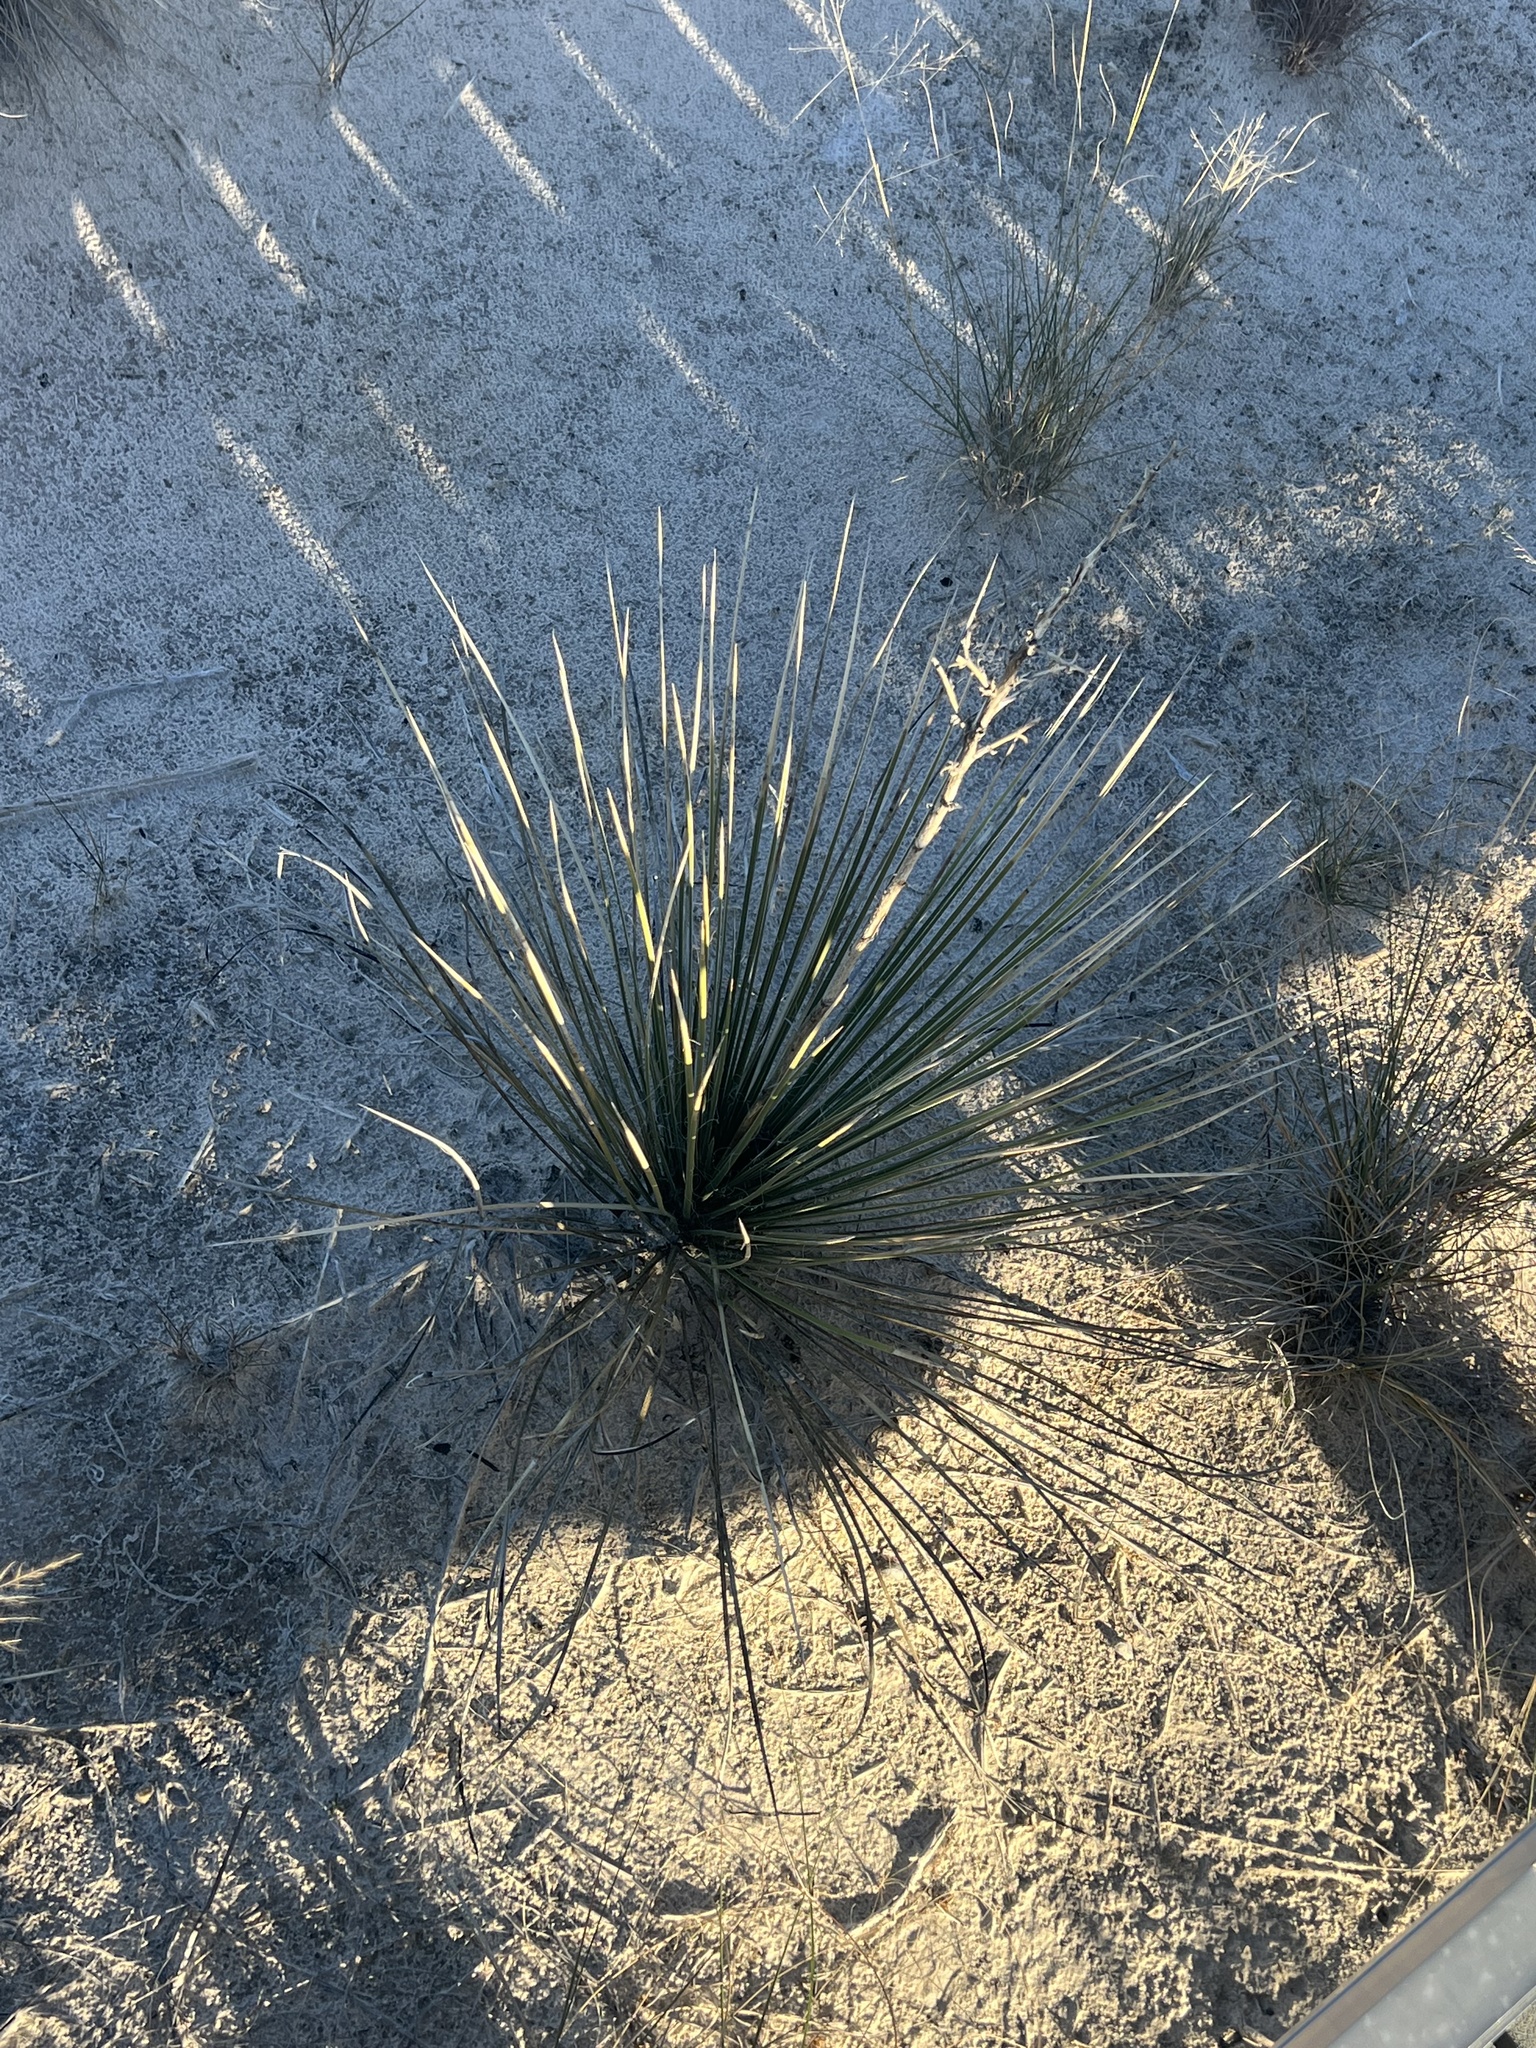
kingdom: Plantae
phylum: Tracheophyta
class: Liliopsida
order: Asparagales
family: Asparagaceae
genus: Yucca
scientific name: Yucca elata
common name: Palmella
